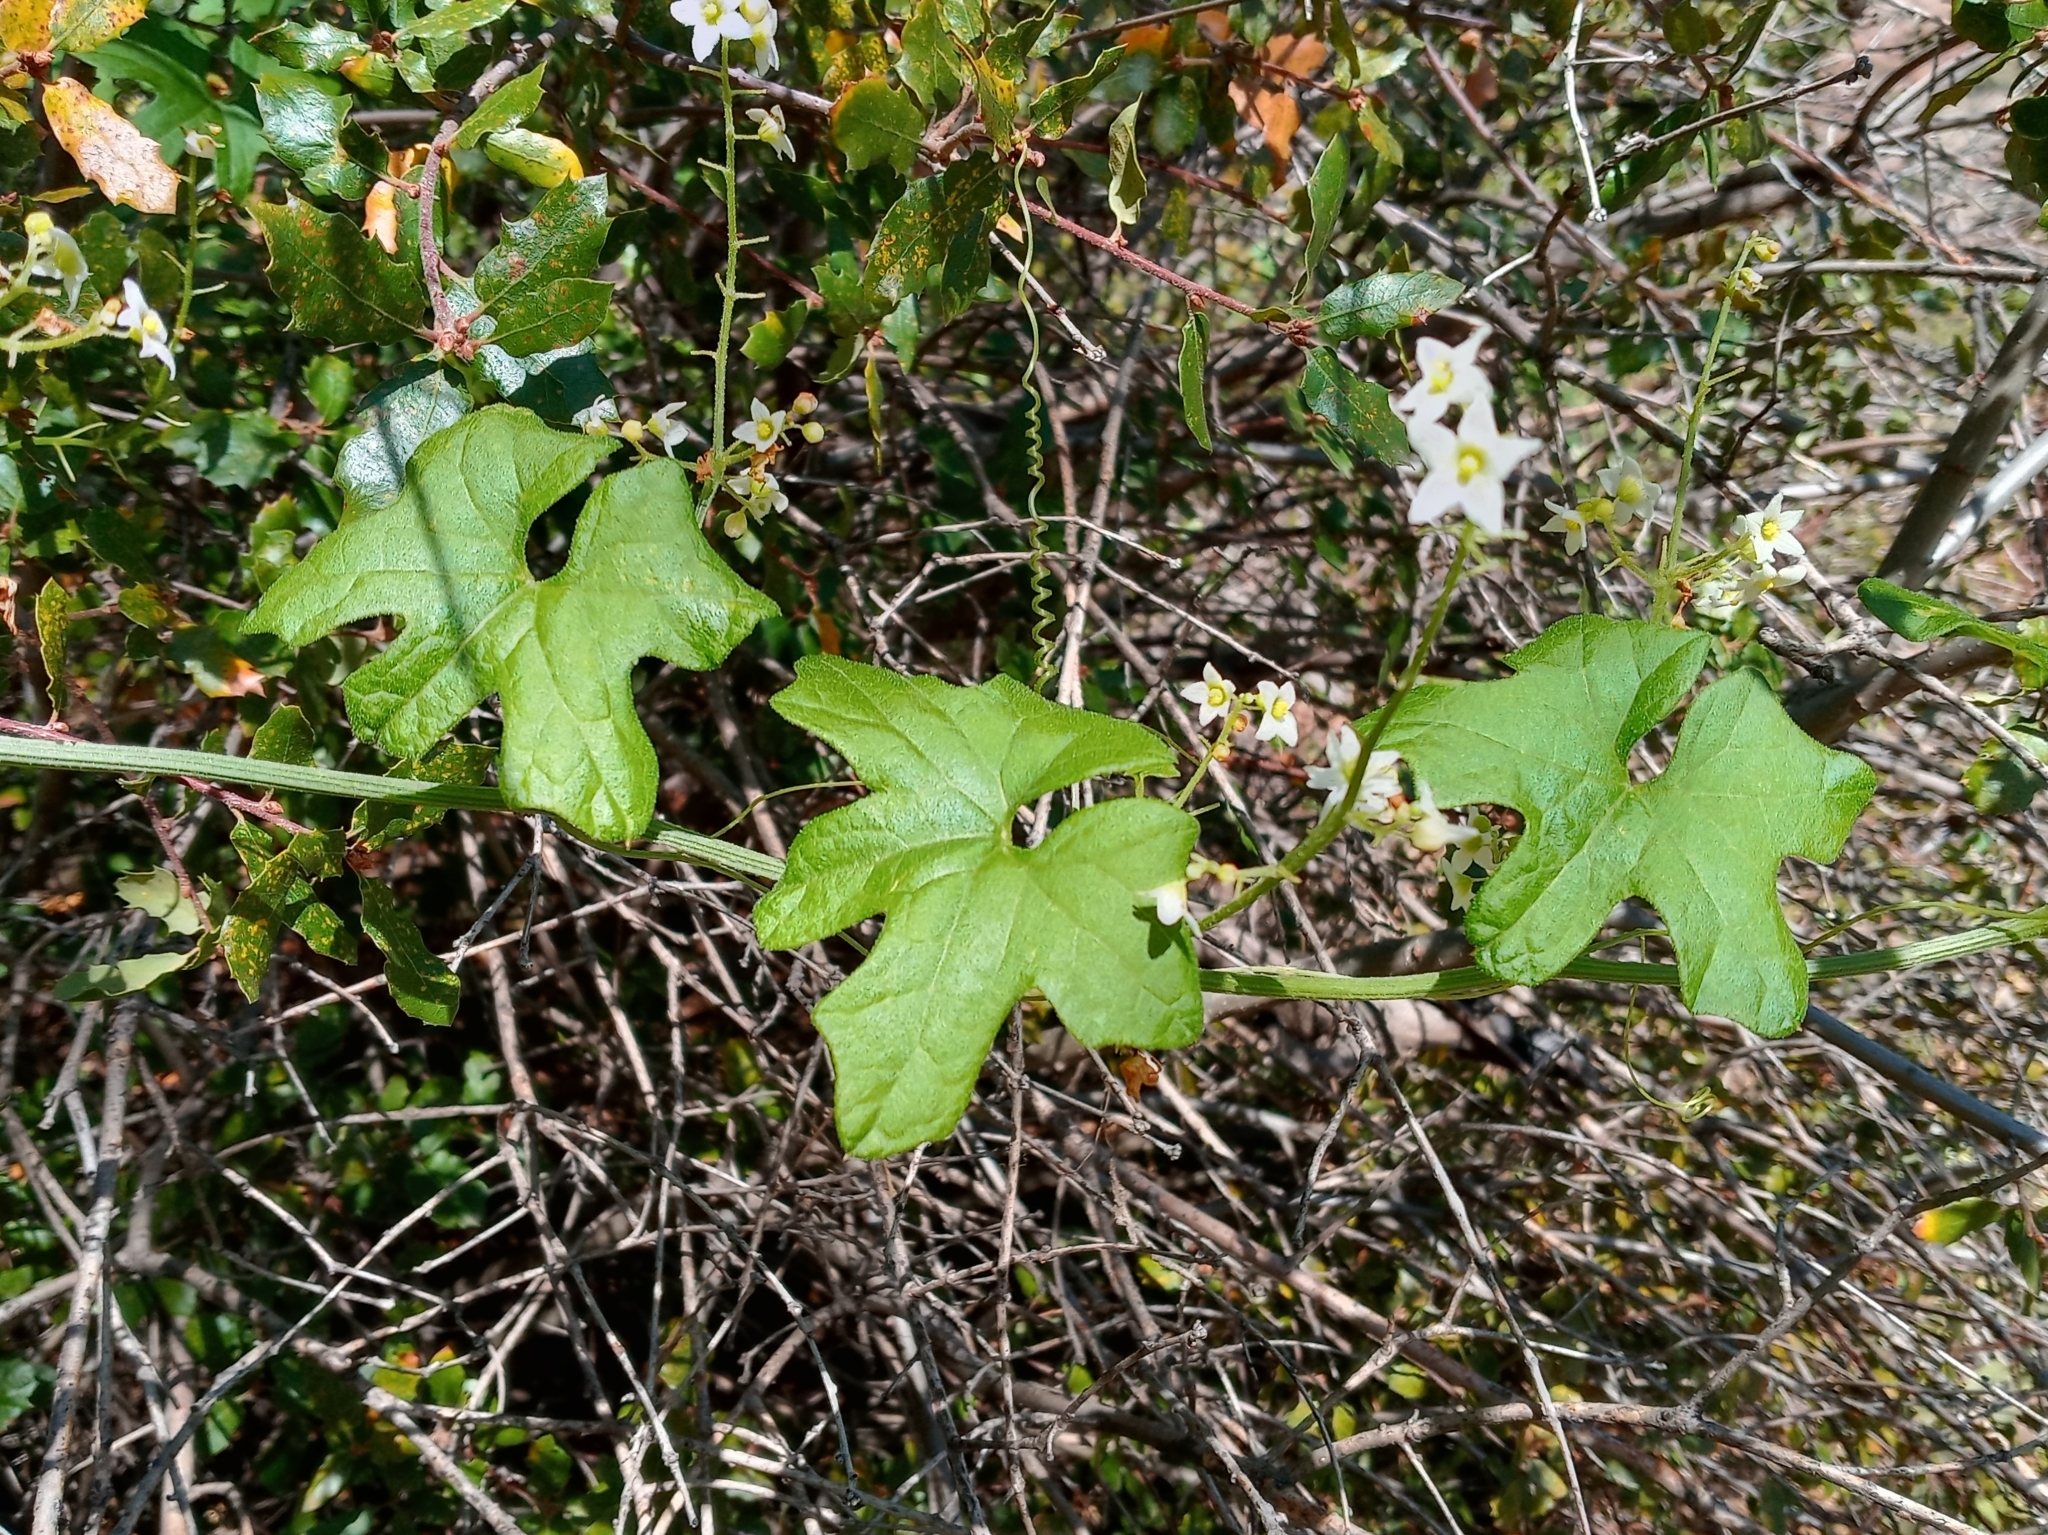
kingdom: Plantae
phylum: Tracheophyta
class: Magnoliopsida
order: Cucurbitales
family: Cucurbitaceae
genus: Marah
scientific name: Marah macrocarpa
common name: Cucamonga manroot
